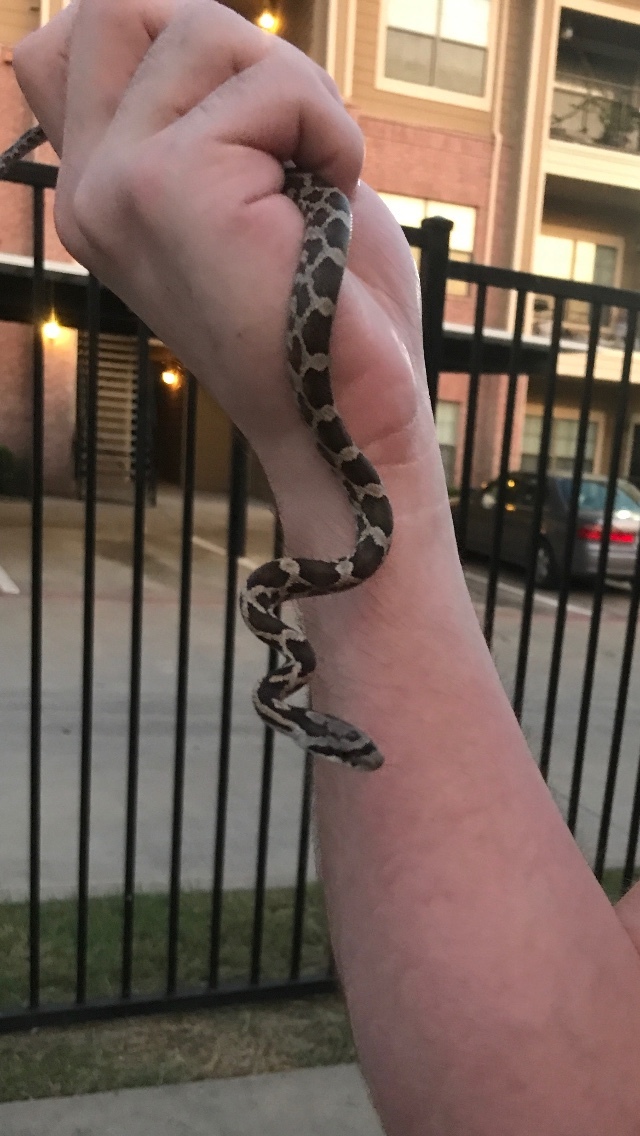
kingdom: Animalia
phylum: Chordata
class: Squamata
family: Colubridae
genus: Pantherophis
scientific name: Pantherophis obsoletus
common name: Black rat snake
